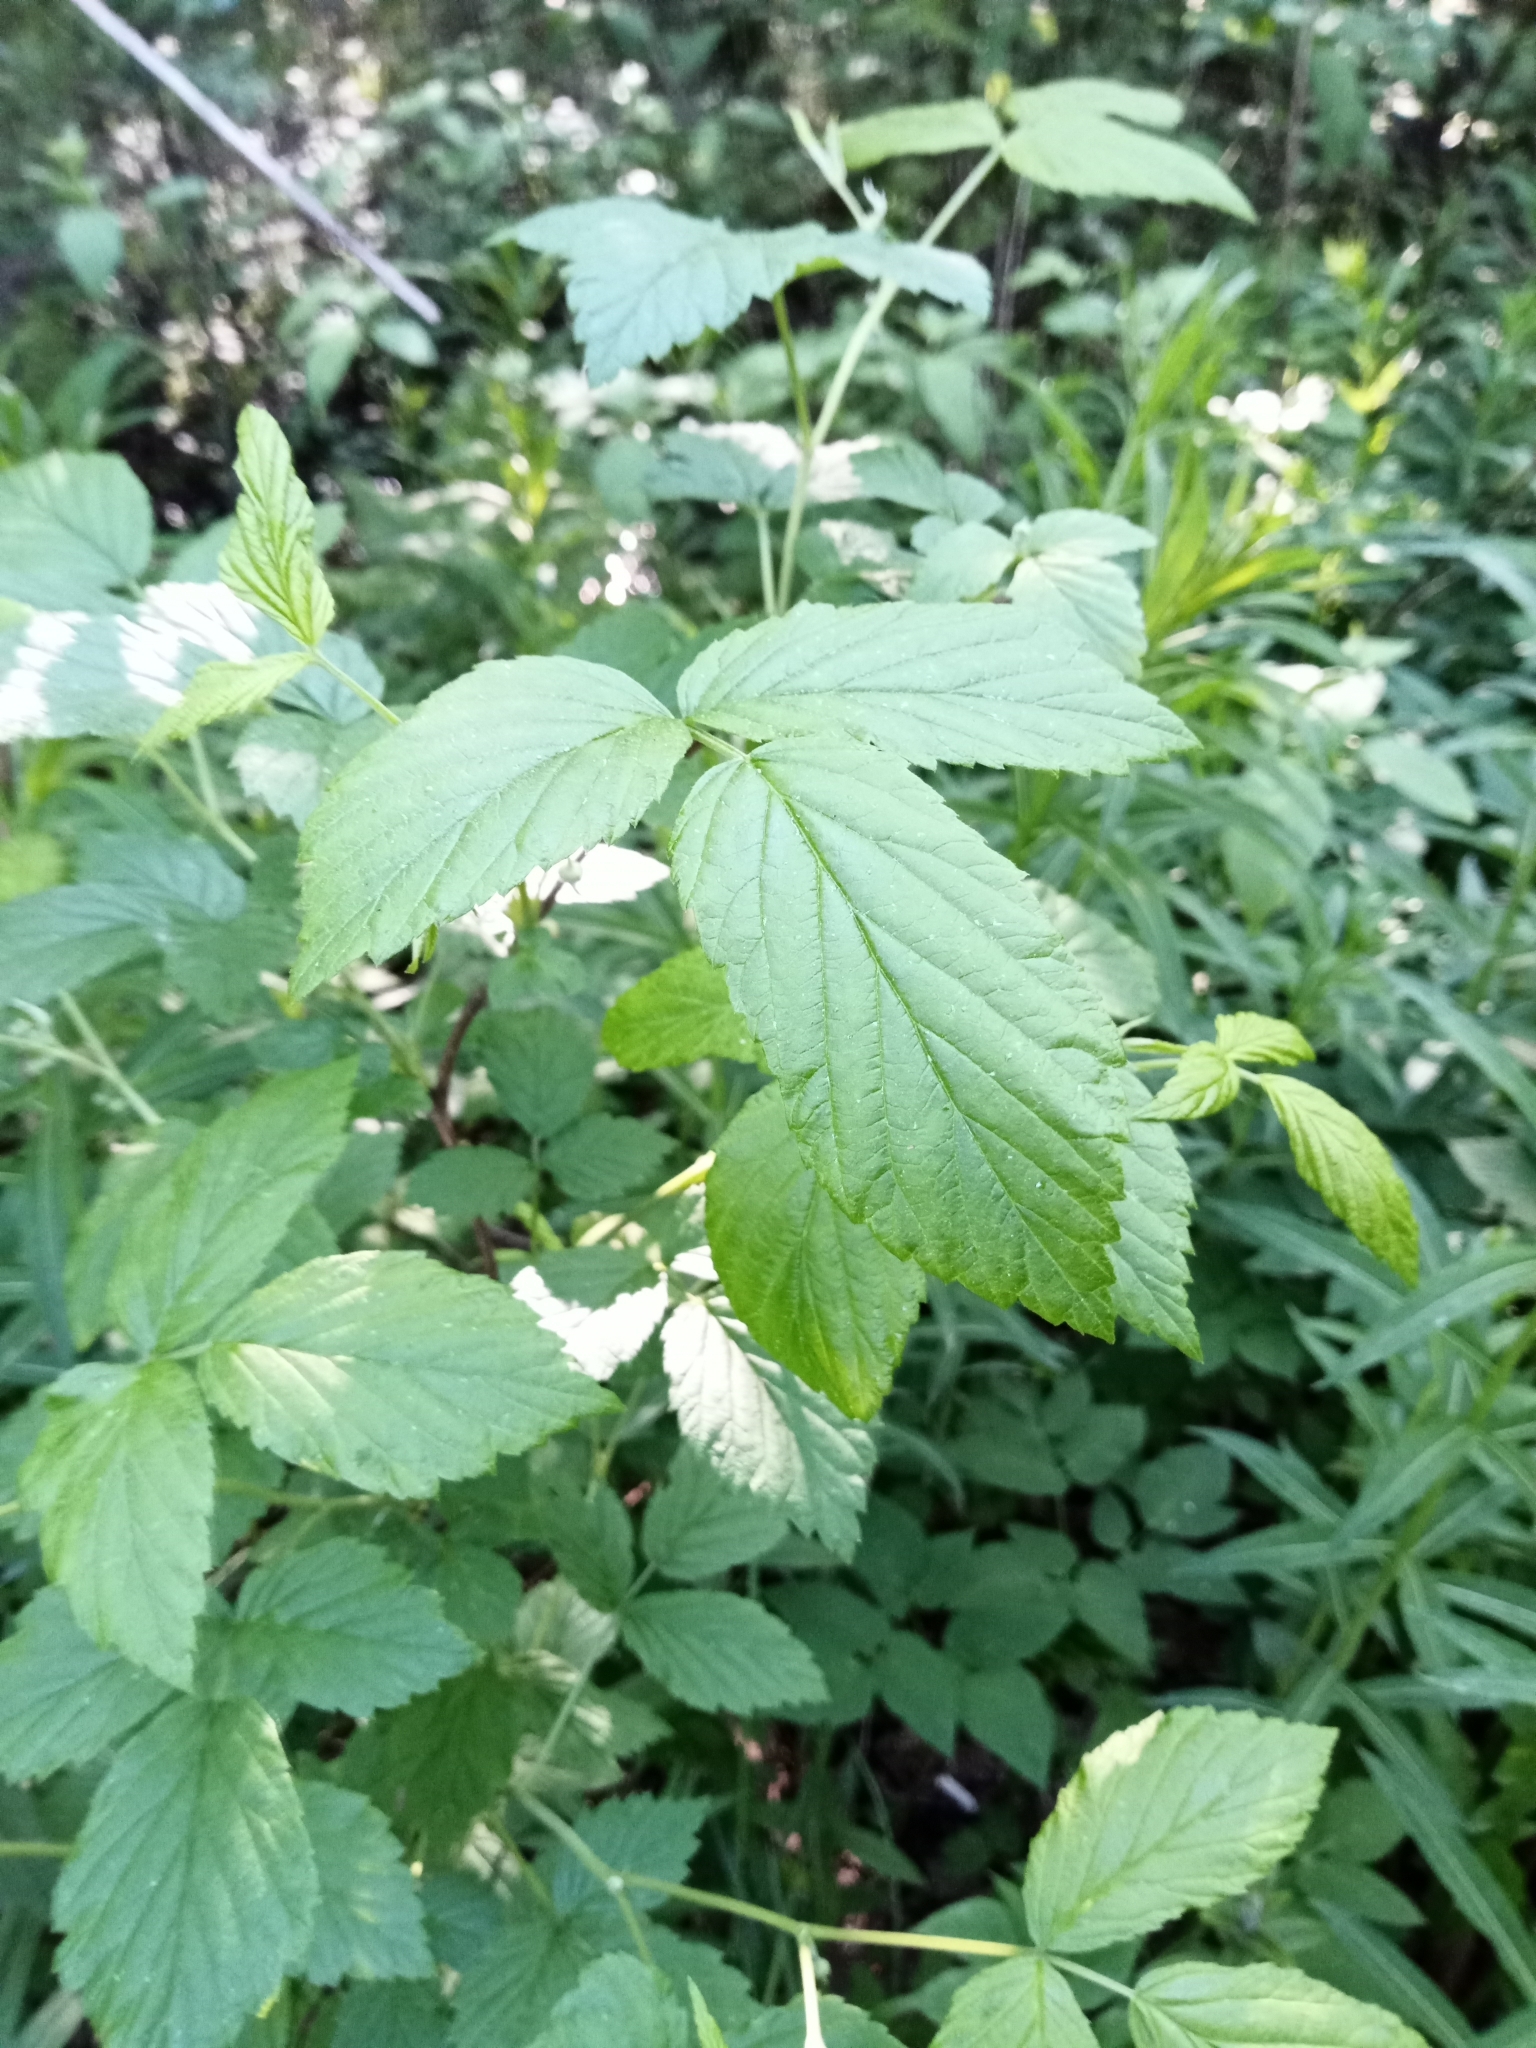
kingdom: Plantae
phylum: Tracheophyta
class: Magnoliopsida
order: Rosales
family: Rosaceae
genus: Rubus
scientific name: Rubus idaeus
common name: Raspberry
